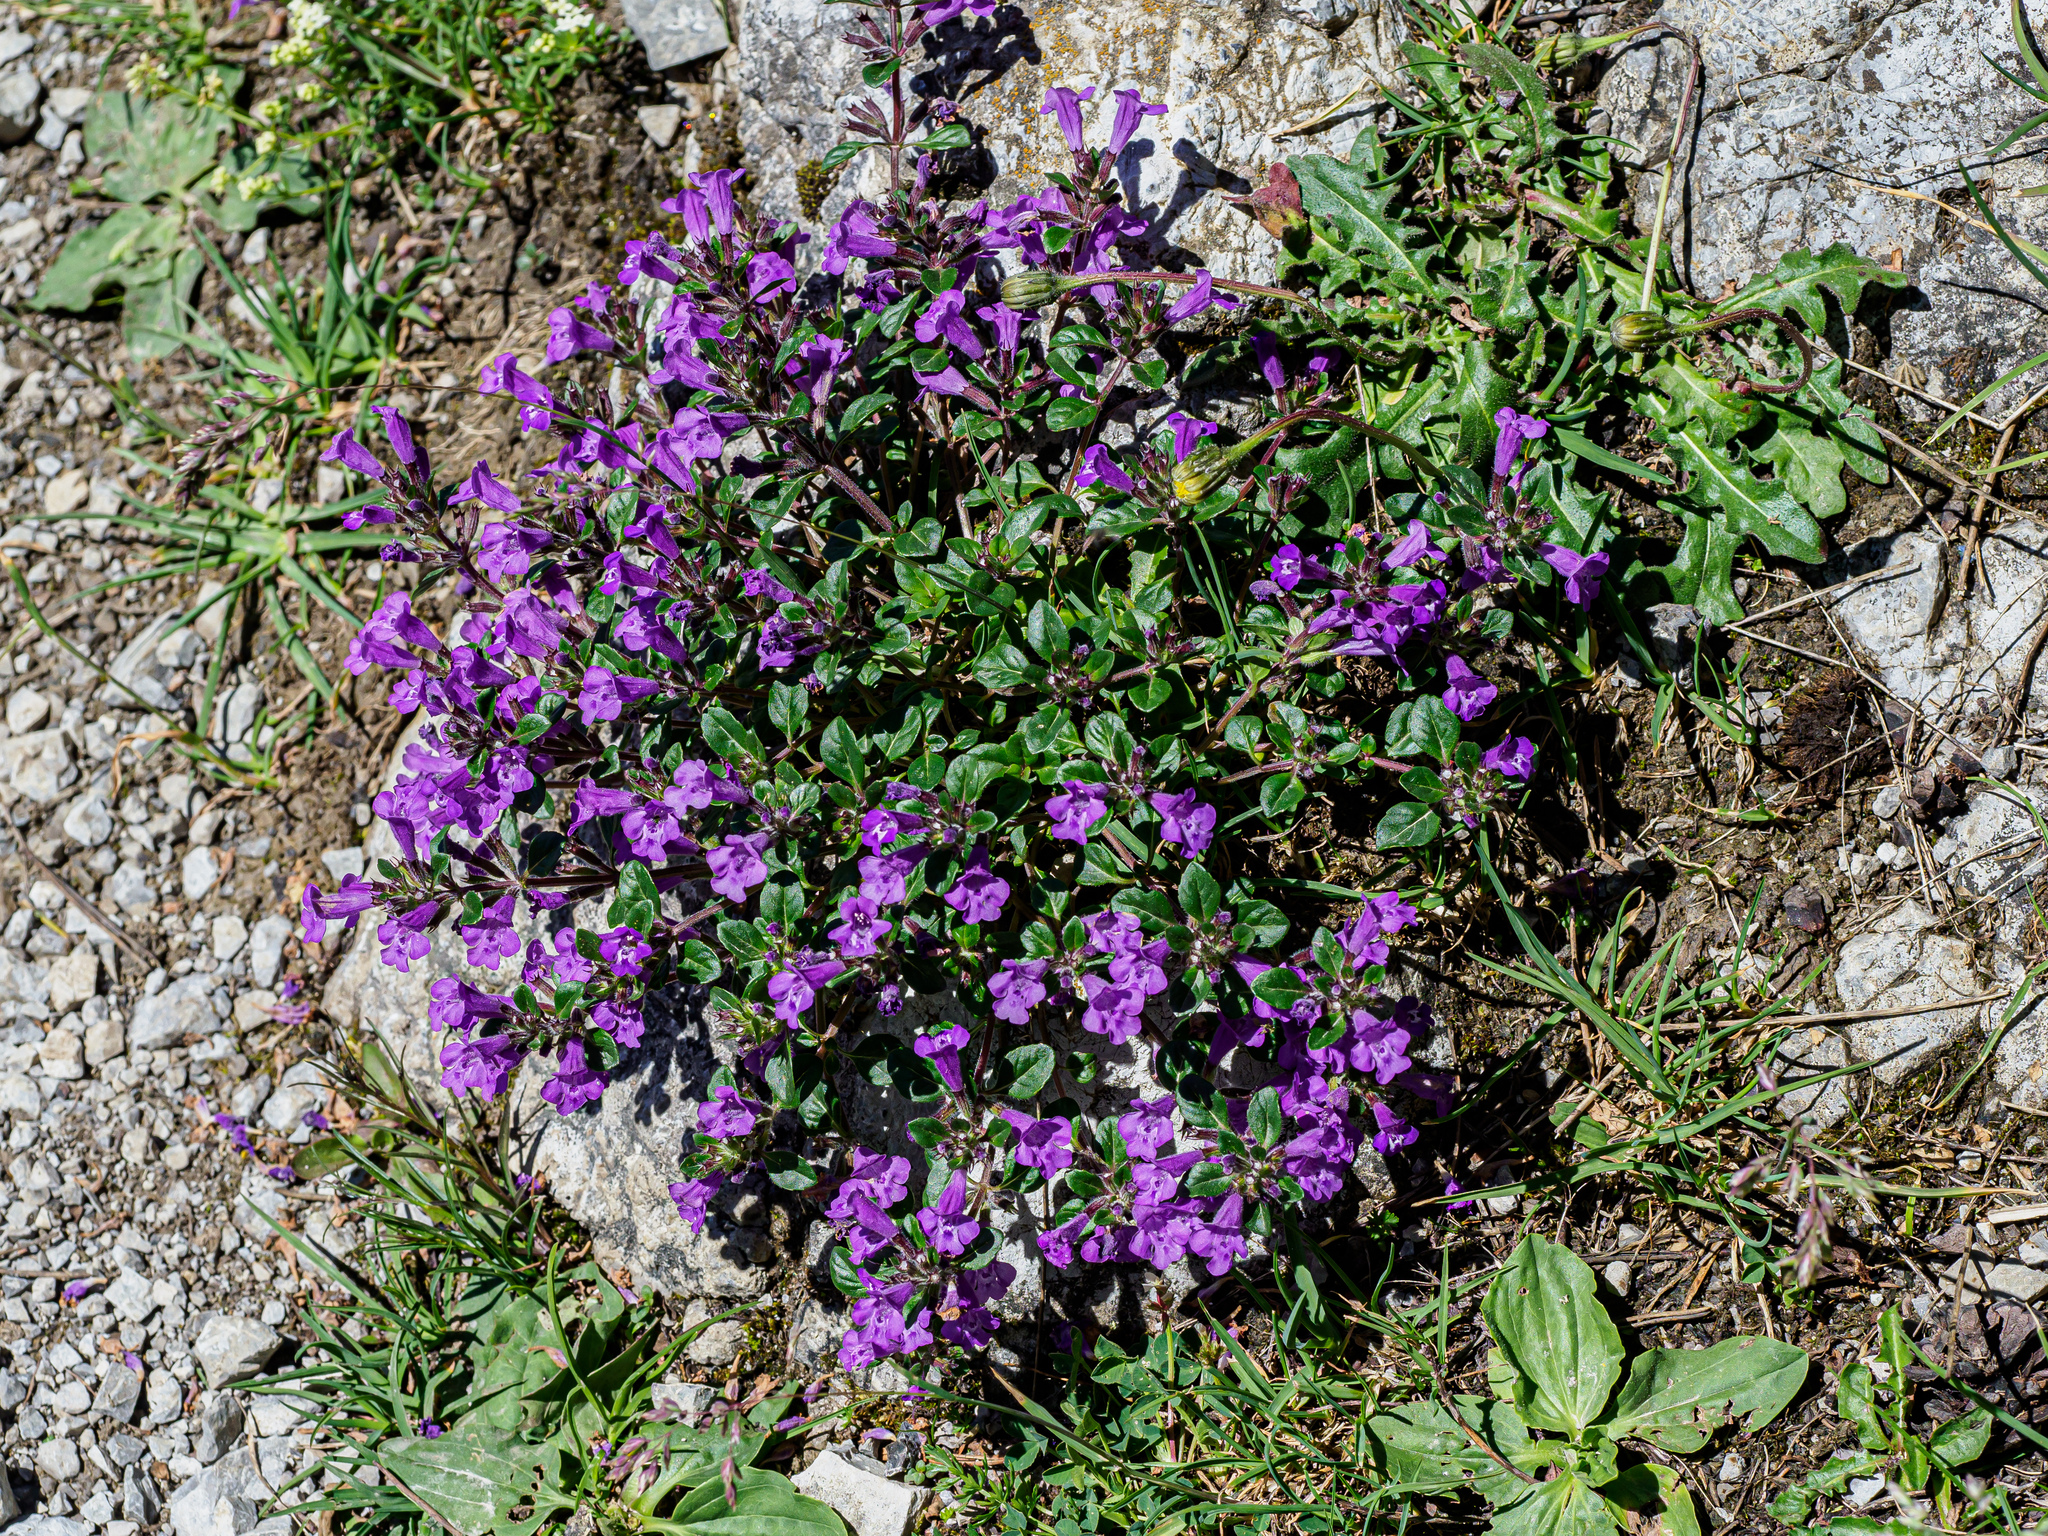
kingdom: Plantae
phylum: Tracheophyta
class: Magnoliopsida
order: Lamiales
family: Lamiaceae
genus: Clinopodium
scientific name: Clinopodium alpinum
